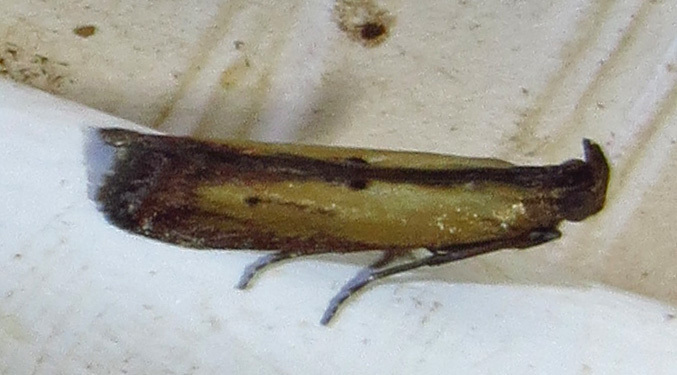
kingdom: Animalia
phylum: Arthropoda
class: Insecta
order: Lepidoptera
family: Pyralidae
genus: Elasmopalpus
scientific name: Elasmopalpus lignosella
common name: Lesser cornstalk borer
